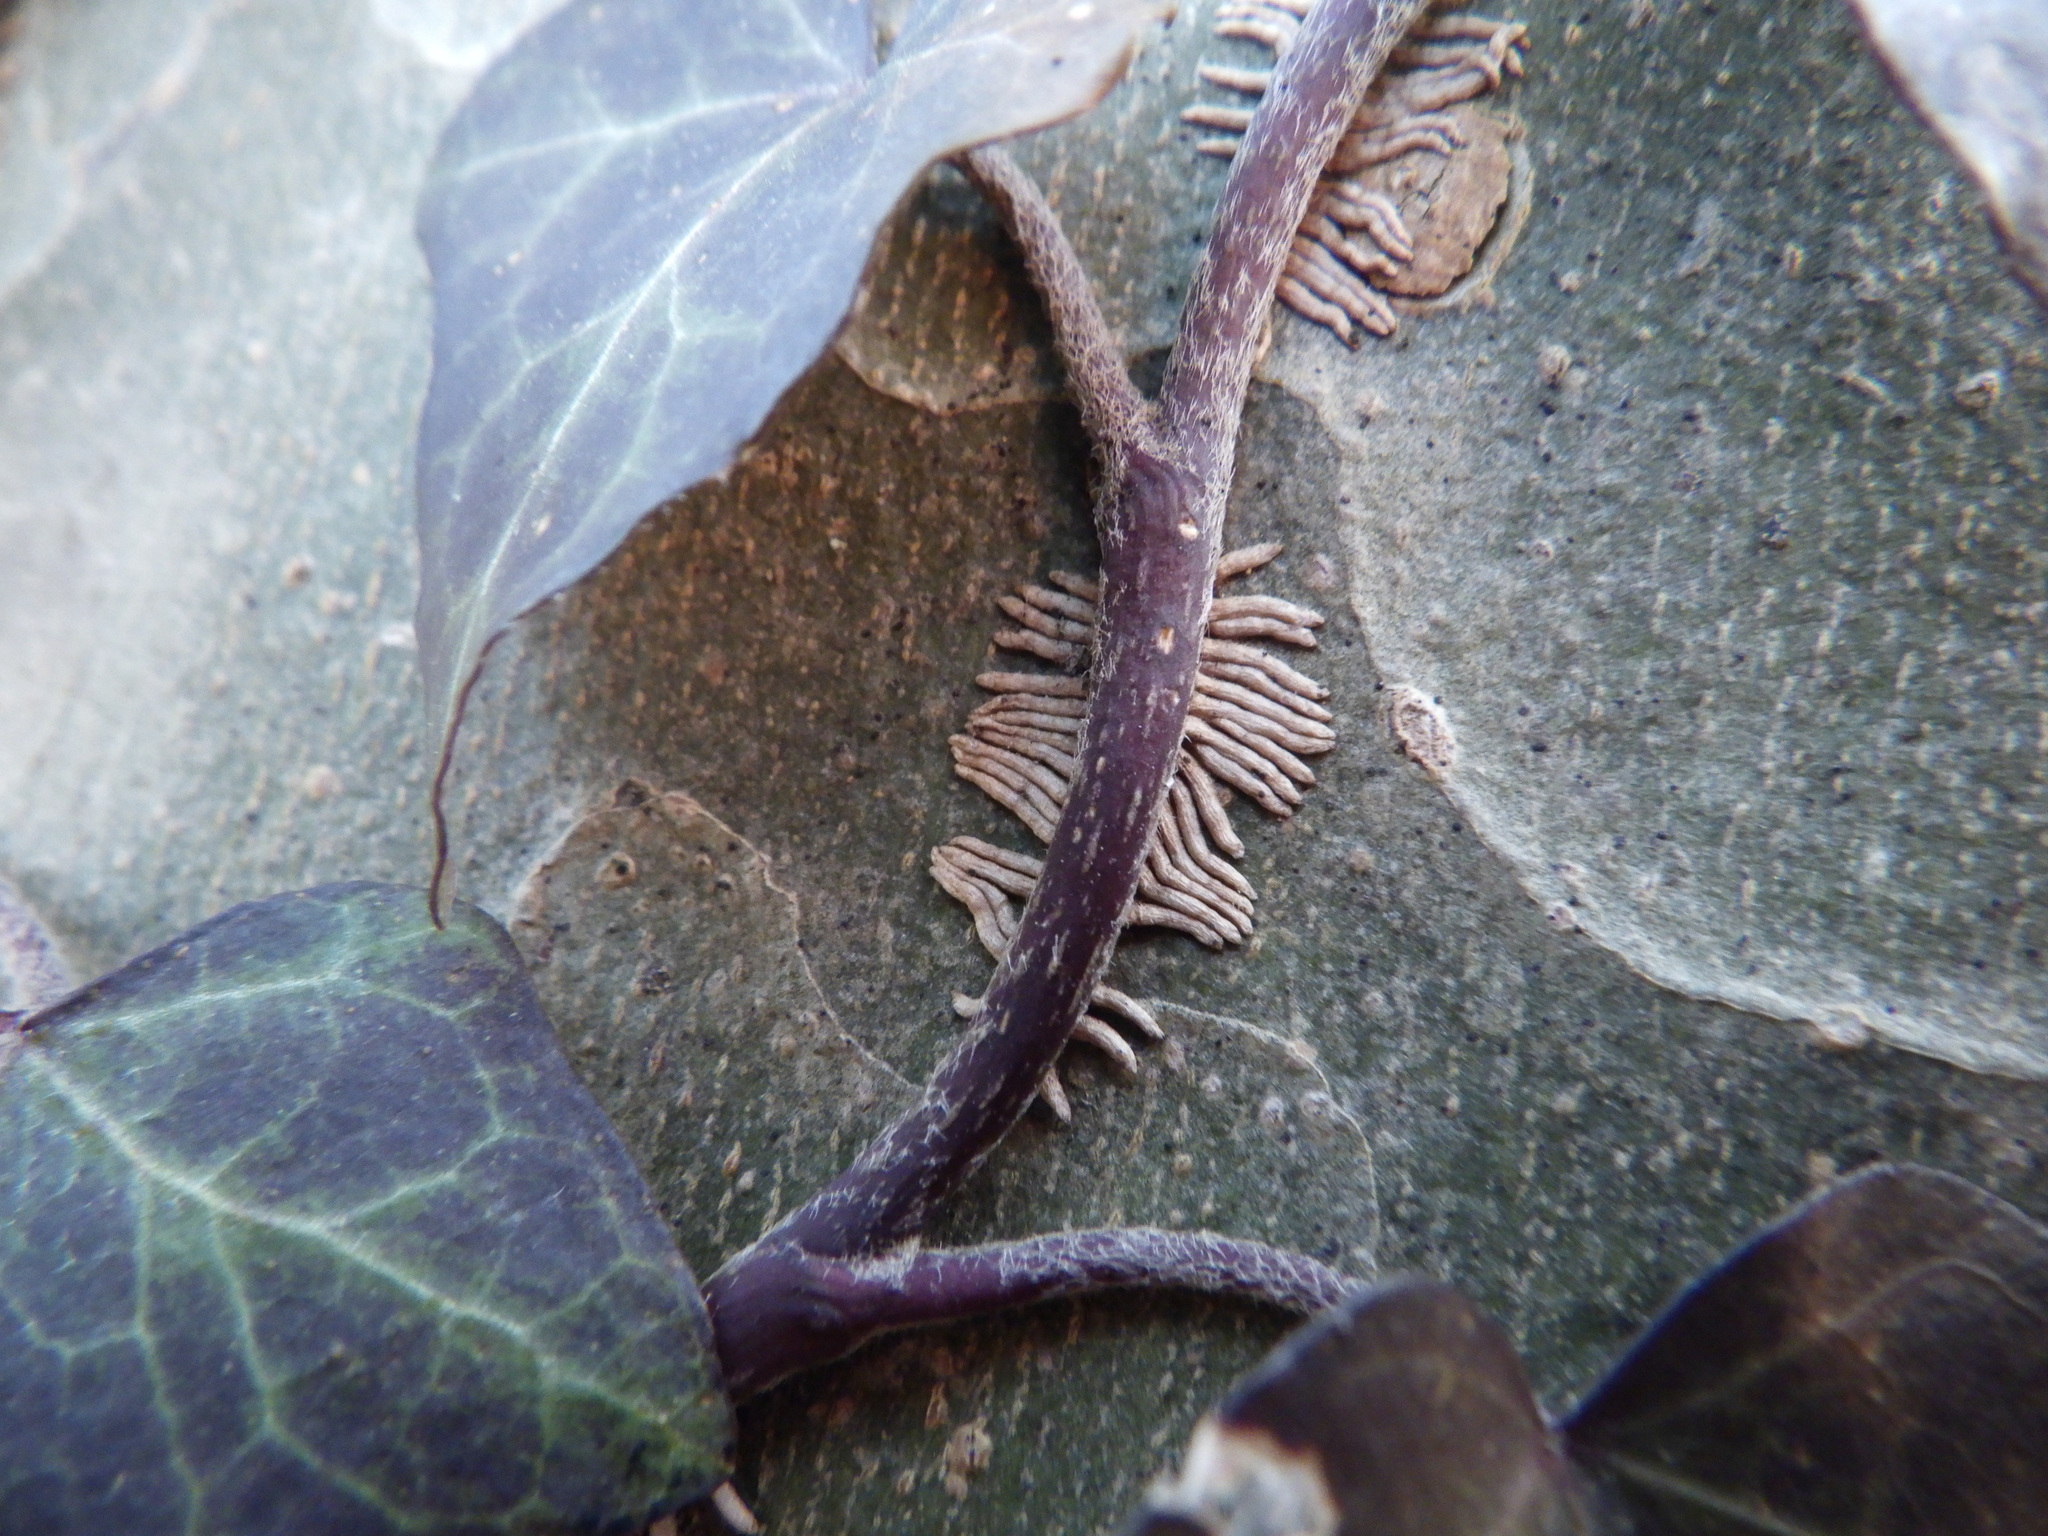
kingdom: Plantae
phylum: Tracheophyta
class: Magnoliopsida
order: Apiales
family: Araliaceae
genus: Hedera
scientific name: Hedera helix
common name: Ivy
